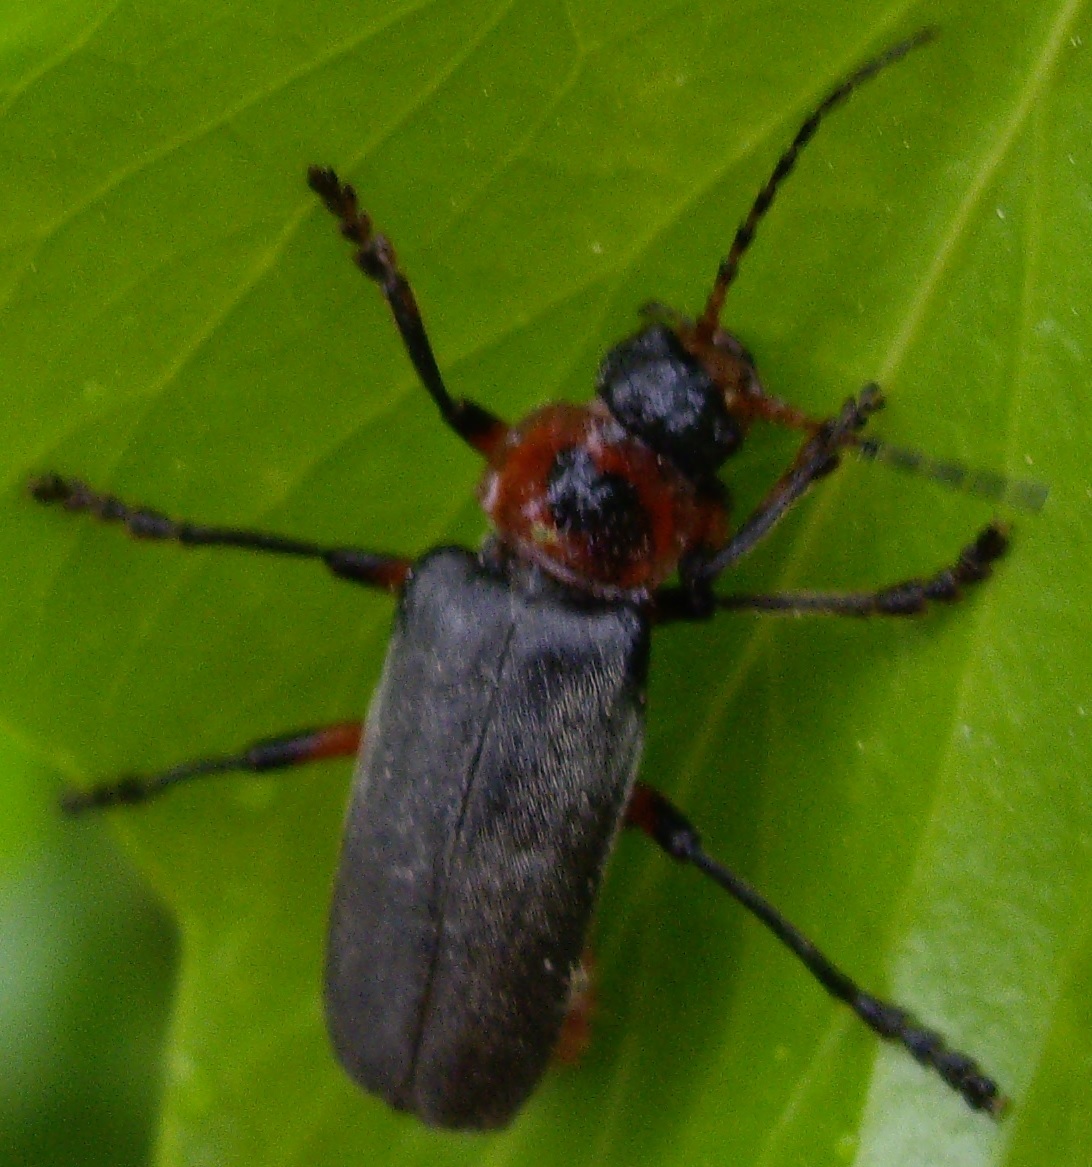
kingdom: Animalia
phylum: Arthropoda
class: Insecta
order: Coleoptera
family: Cantharidae
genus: Cantharis
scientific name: Cantharis rustica
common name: Soldier beetle
